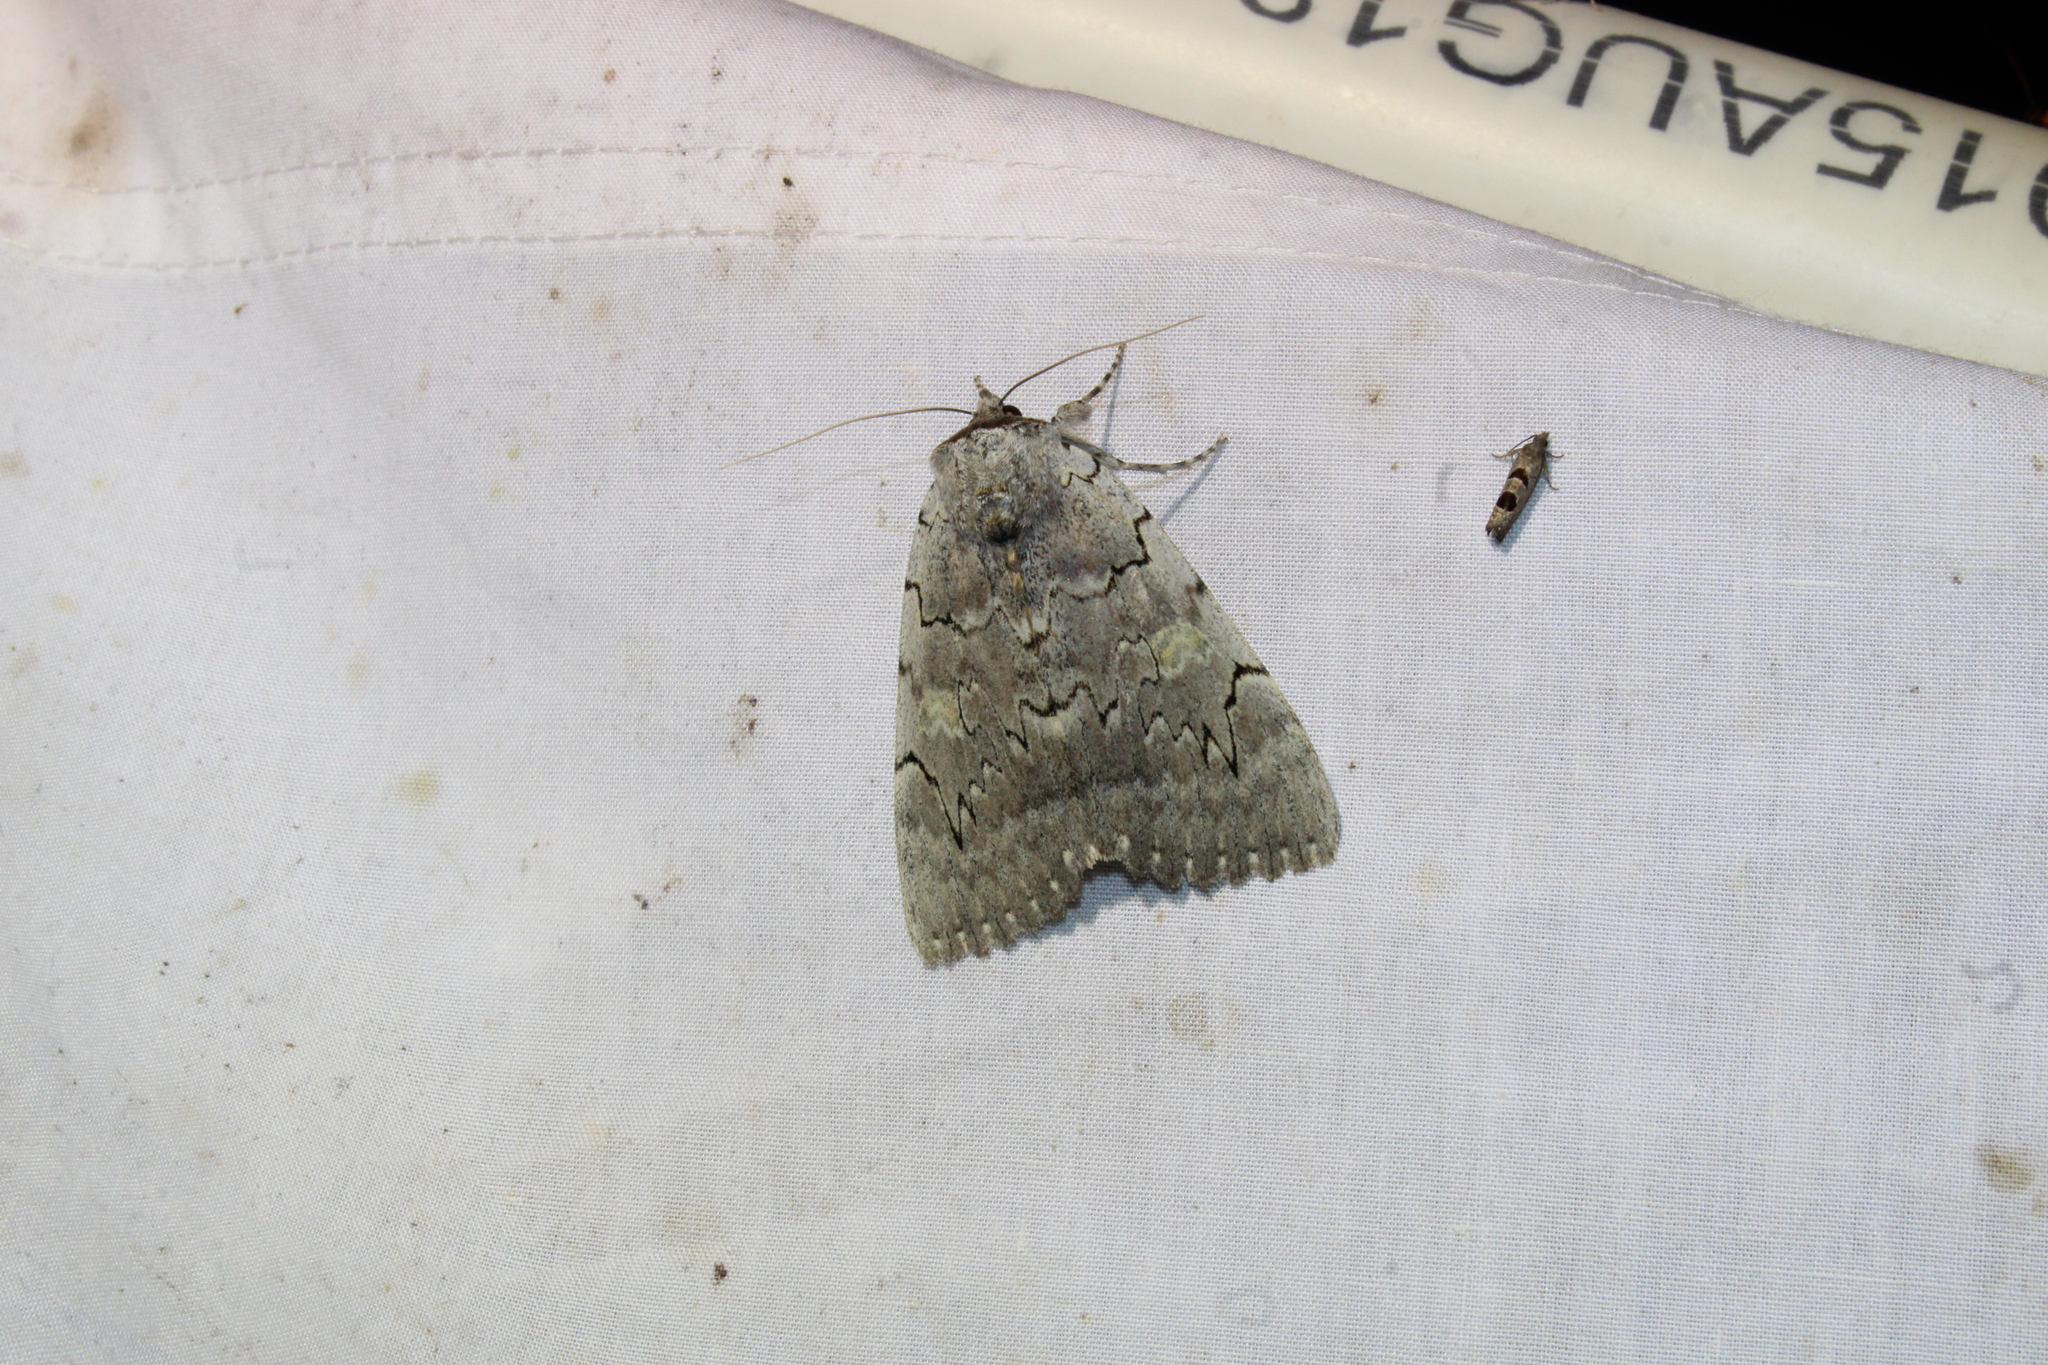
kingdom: Animalia
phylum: Arthropoda
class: Insecta
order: Lepidoptera
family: Erebidae
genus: Catocala
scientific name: Catocala concumbens
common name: Pink underwing
